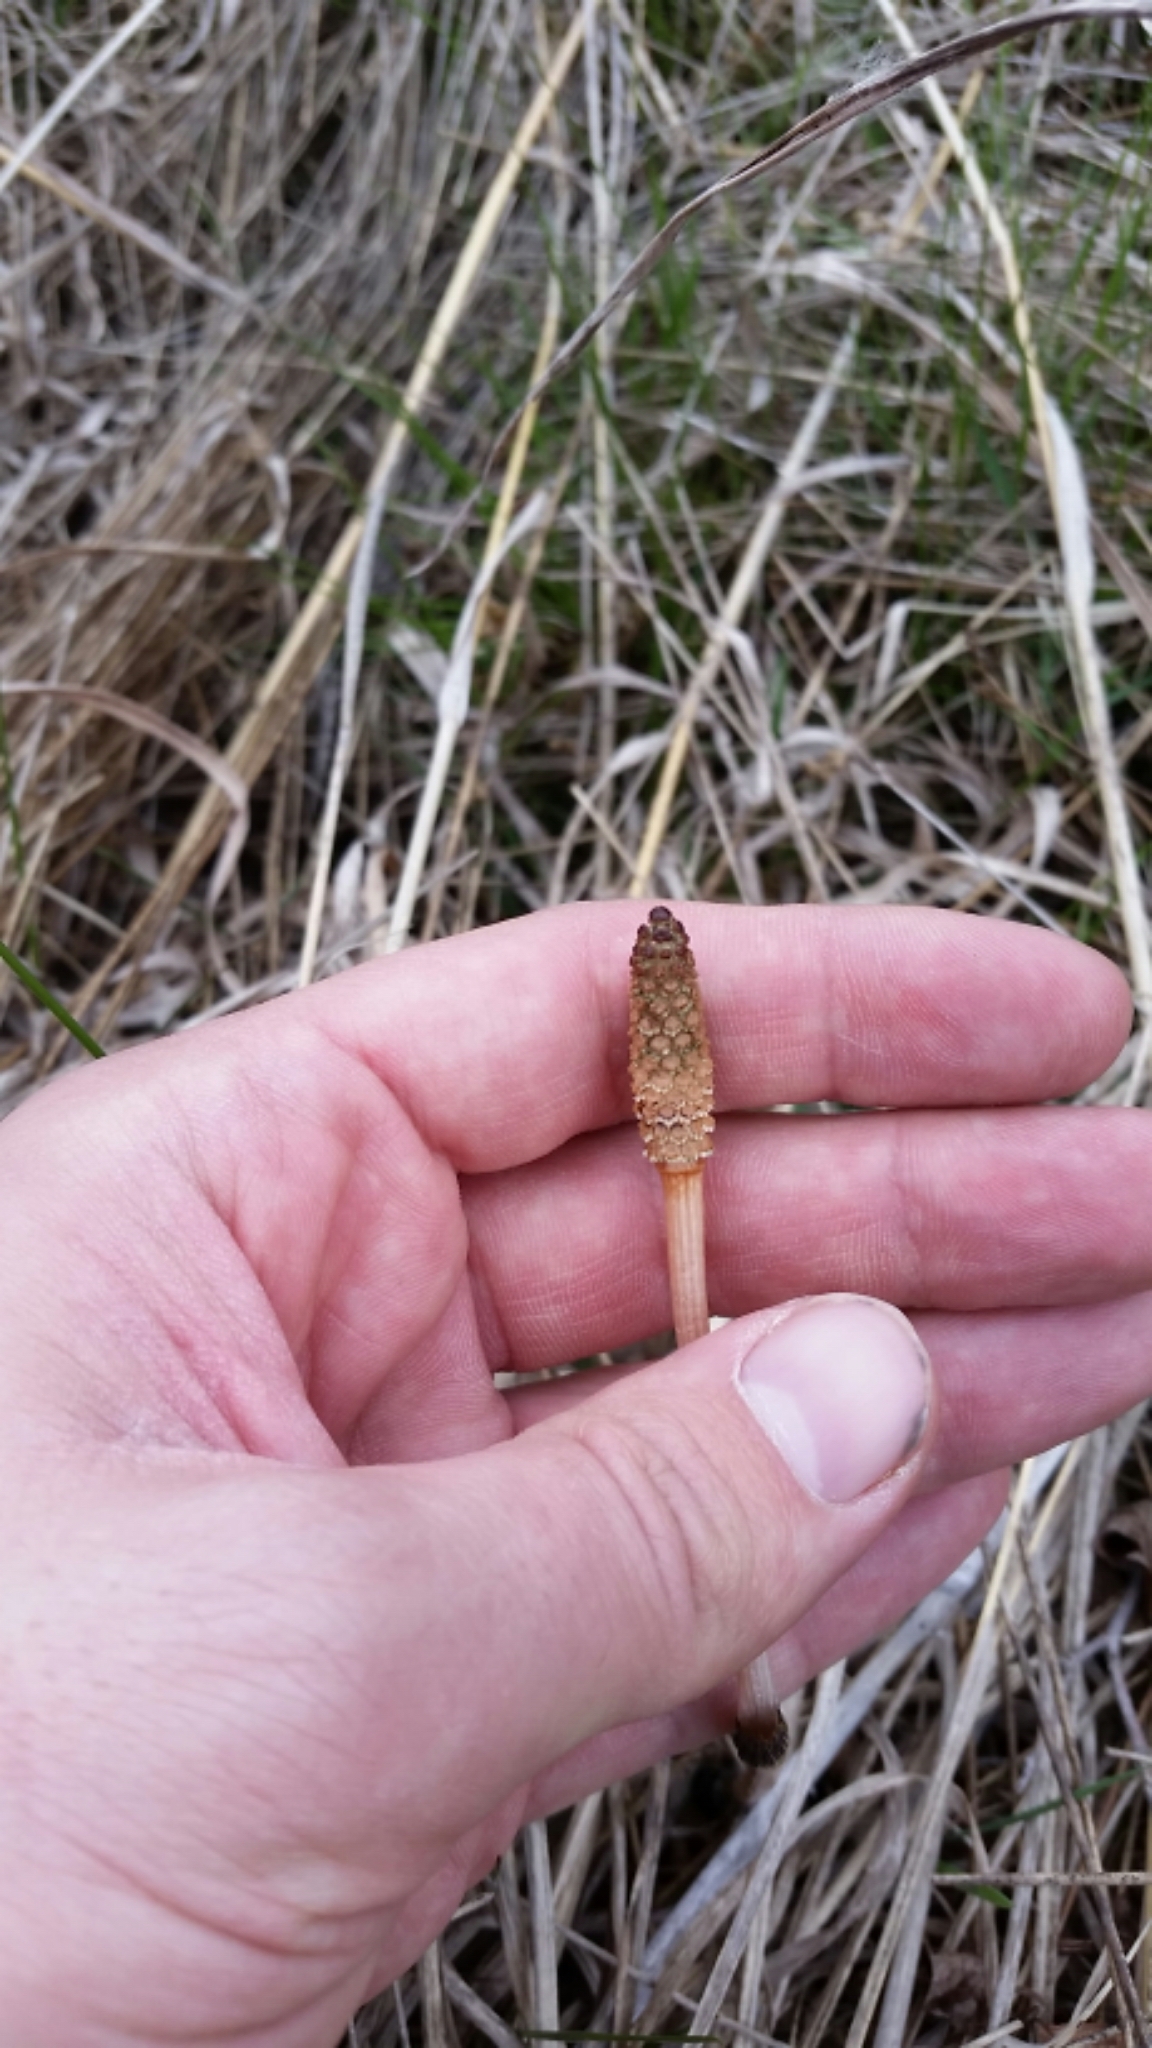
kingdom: Plantae
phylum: Tracheophyta
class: Polypodiopsida
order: Equisetales
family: Equisetaceae
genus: Equisetum
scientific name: Equisetum arvense
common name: Field horsetail
